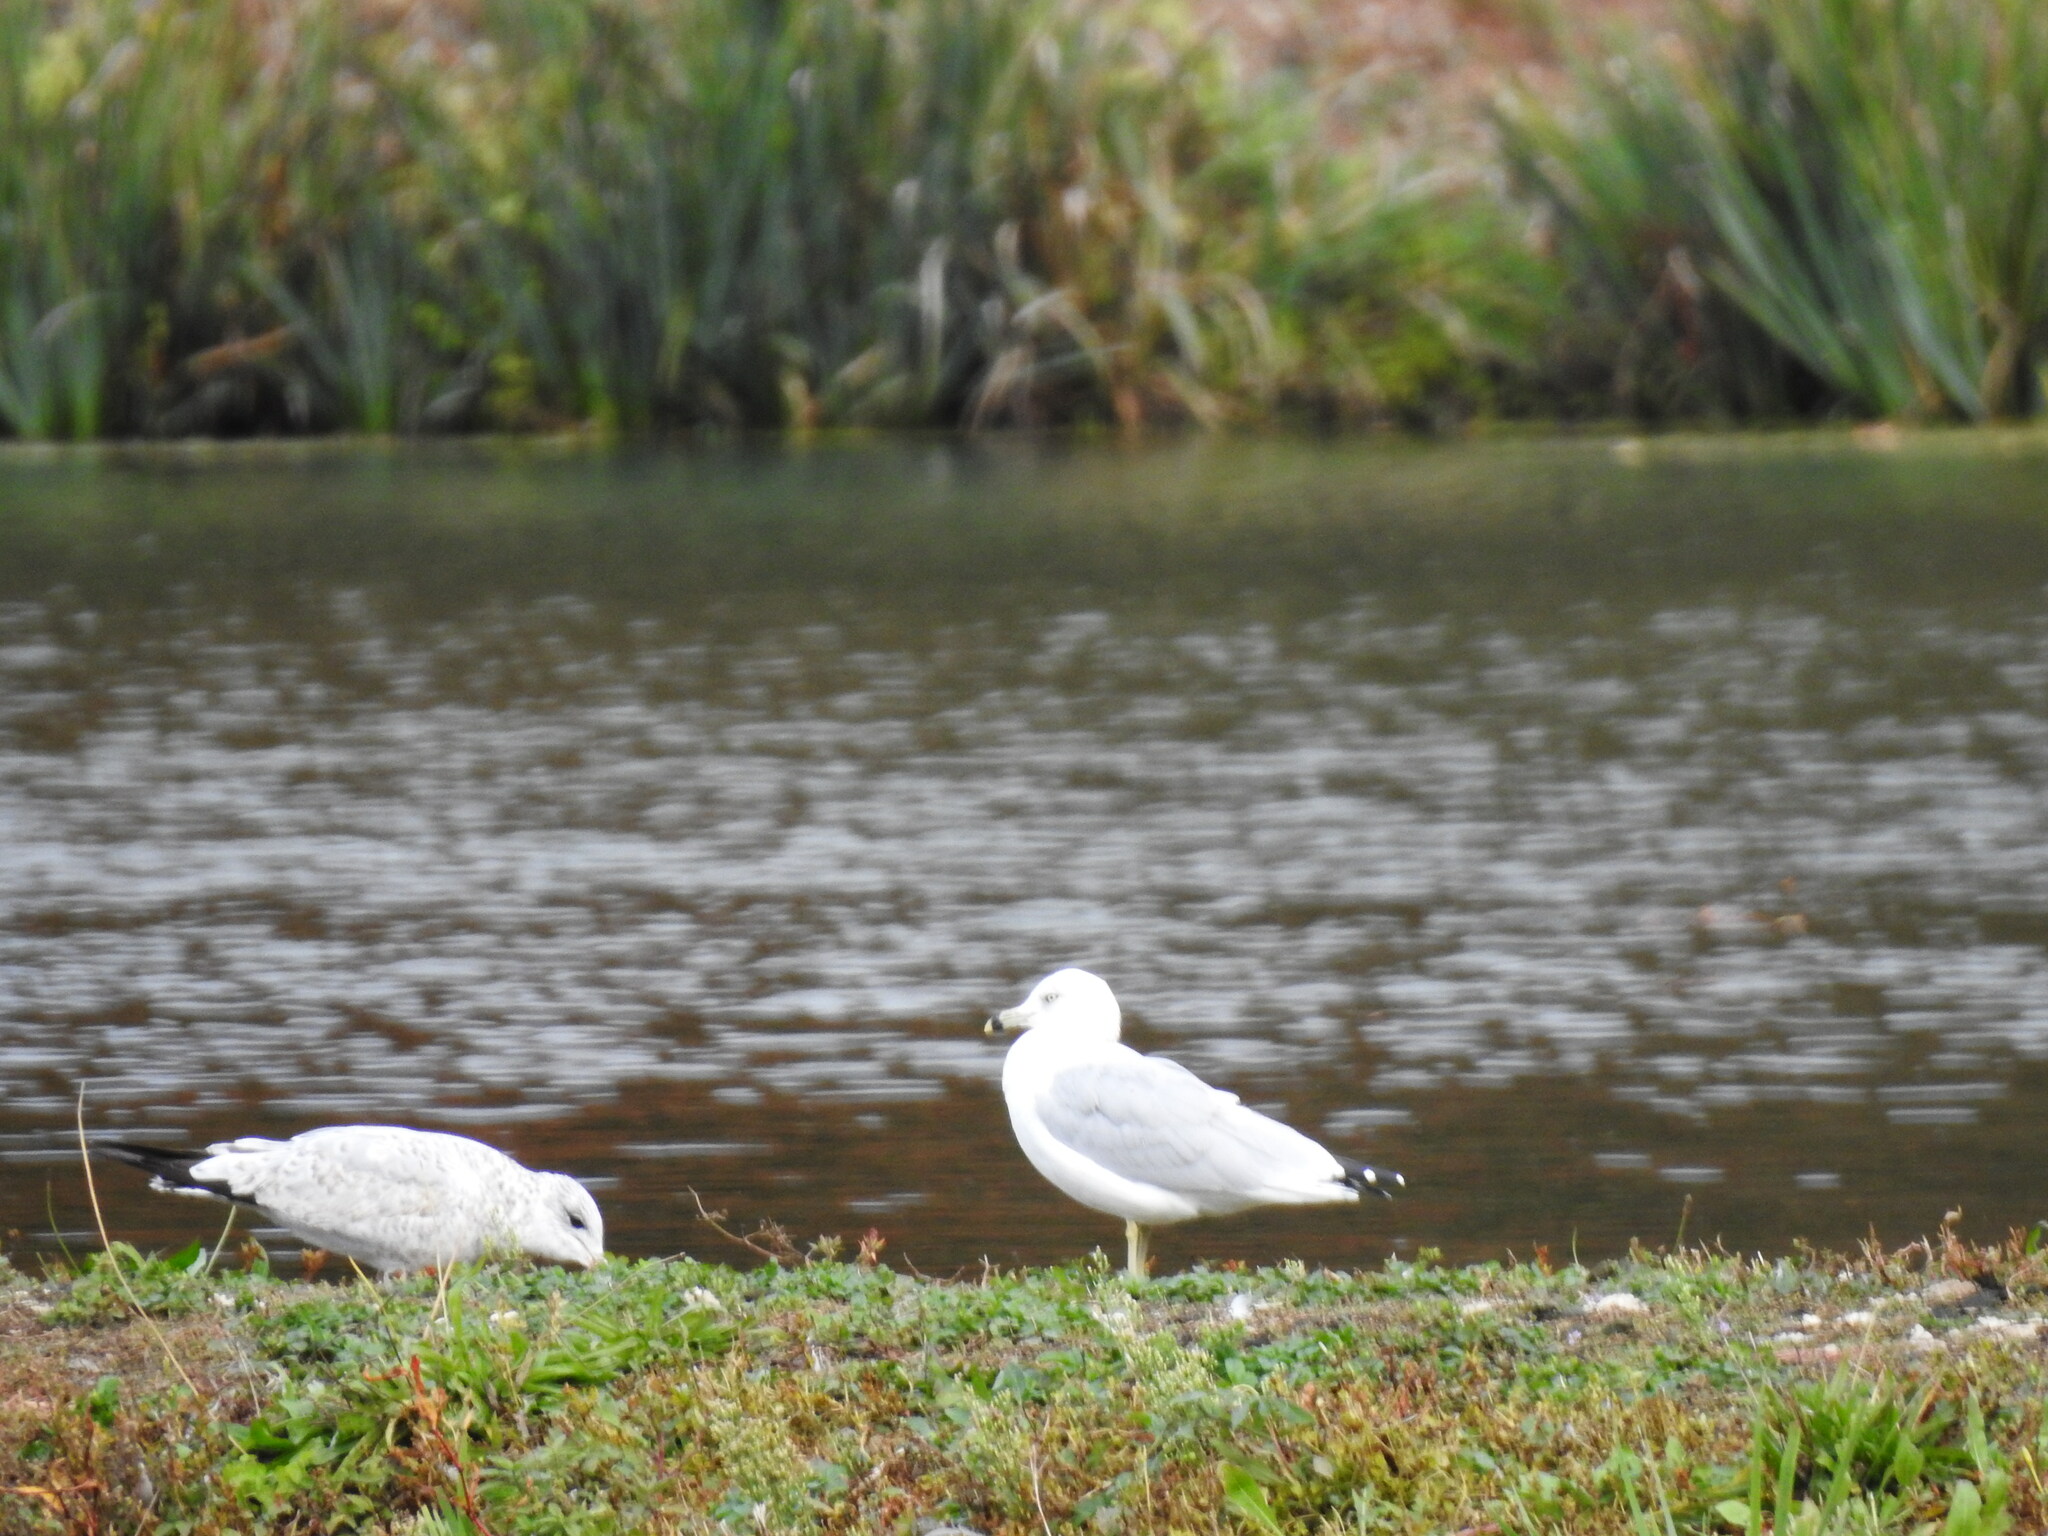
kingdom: Animalia
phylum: Chordata
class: Aves
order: Charadriiformes
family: Laridae
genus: Larus
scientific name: Larus delawarensis
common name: Ring-billed gull
